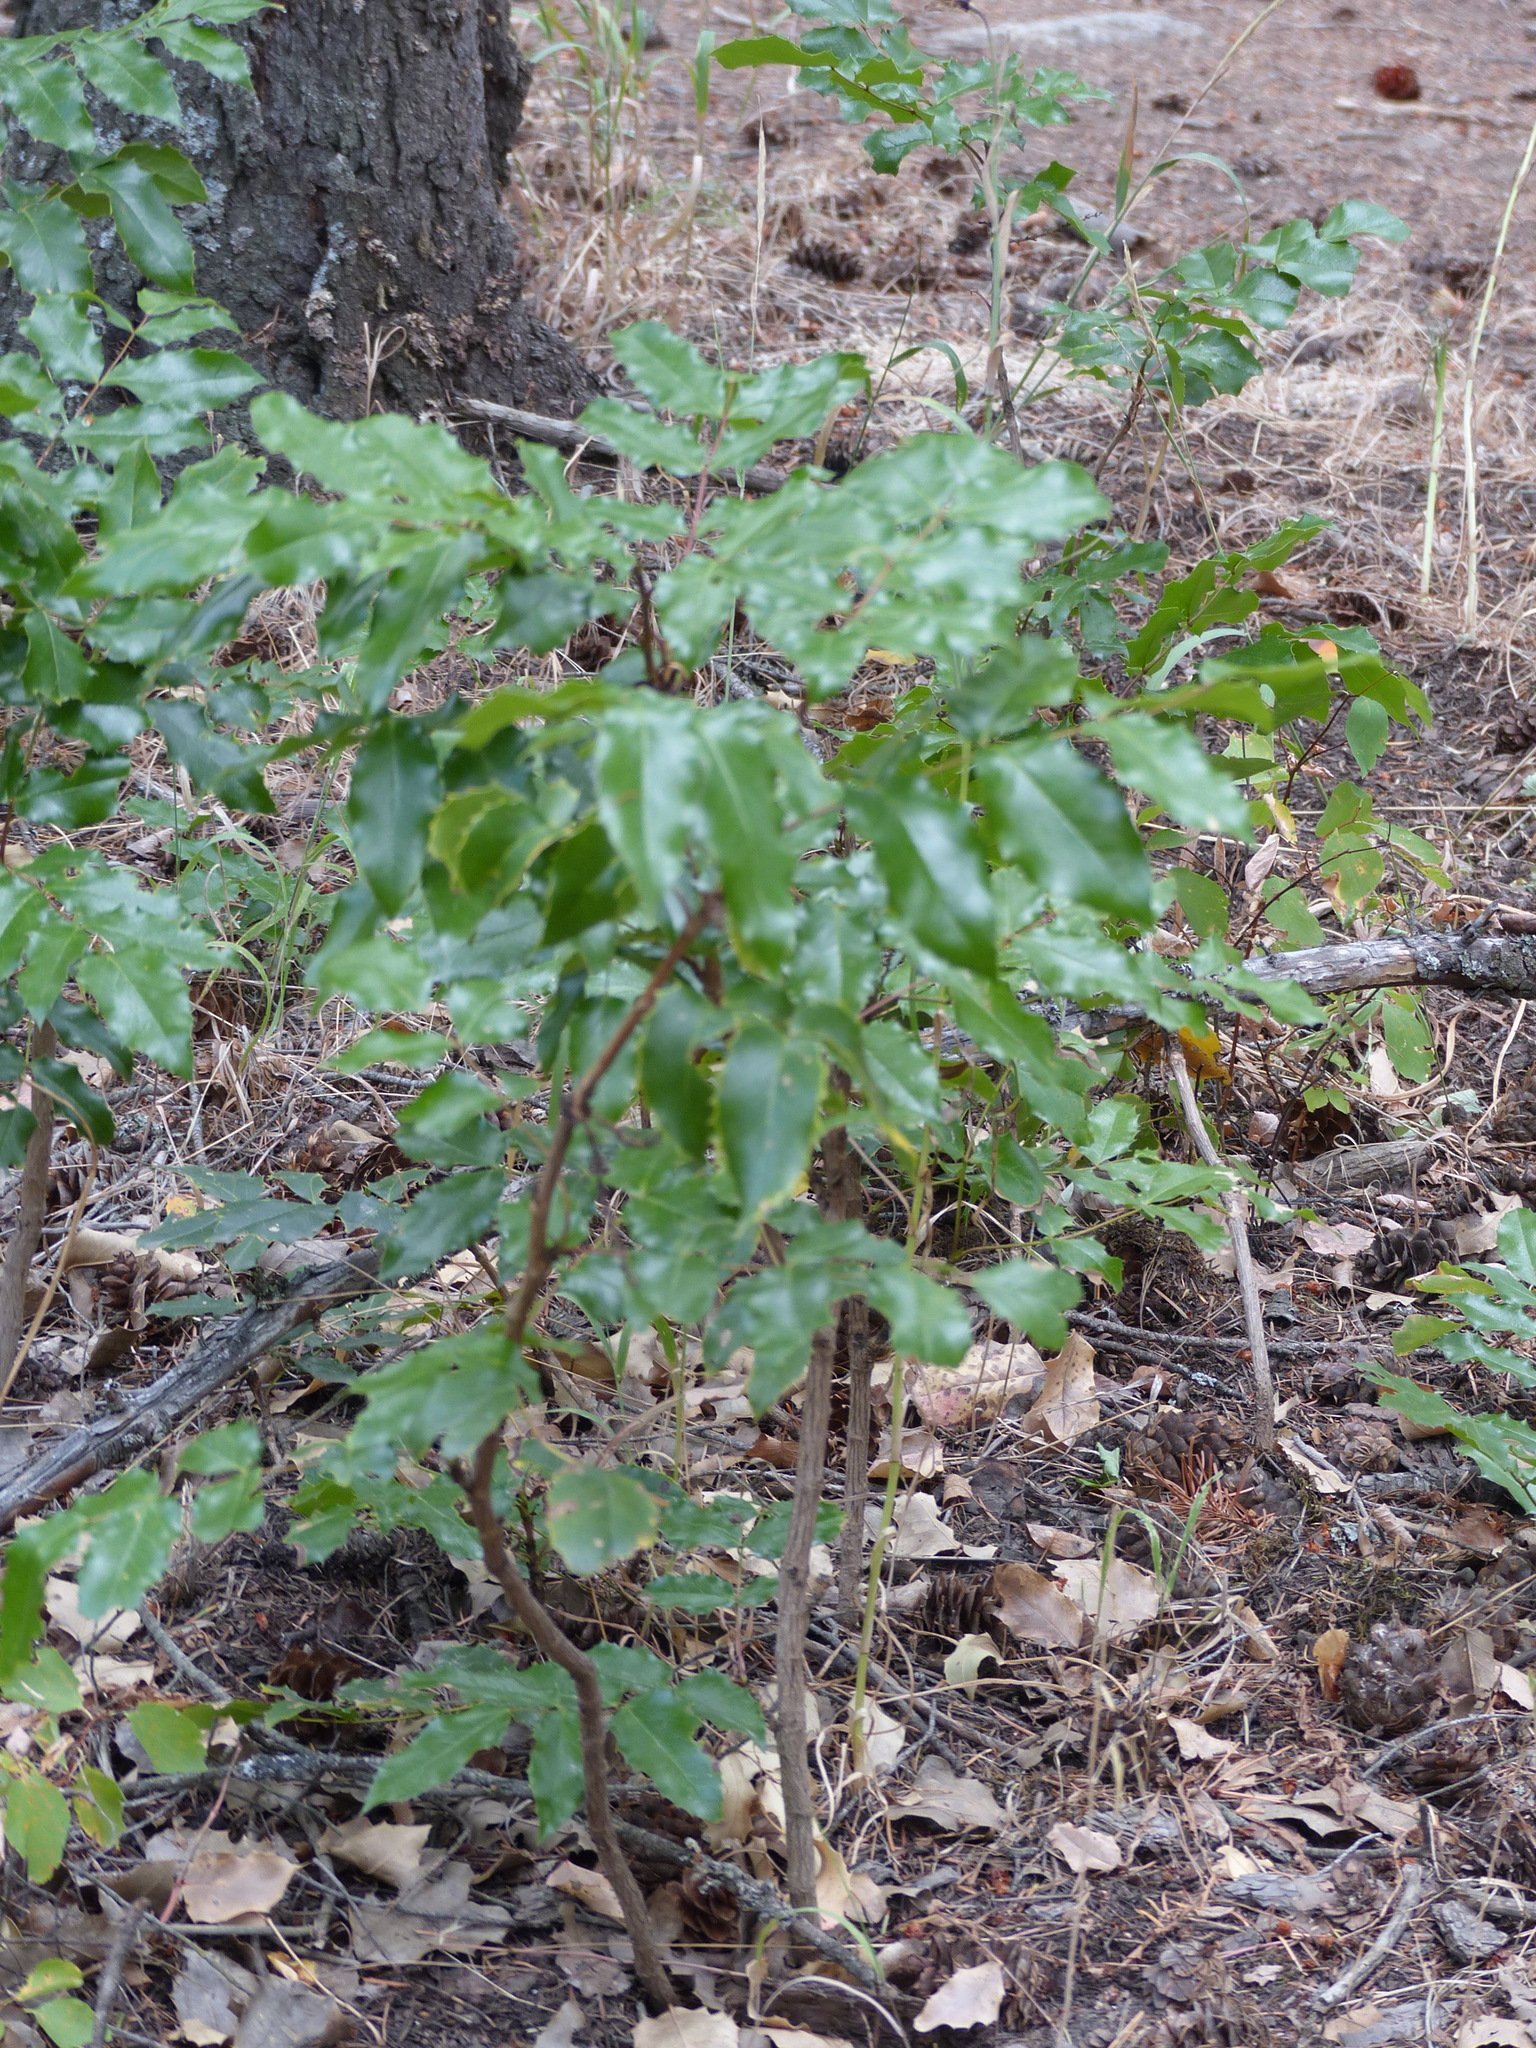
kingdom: Plantae
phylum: Tracheophyta
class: Magnoliopsida
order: Ranunculales
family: Berberidaceae
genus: Mahonia
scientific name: Mahonia aquifolium
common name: Oregon-grape
